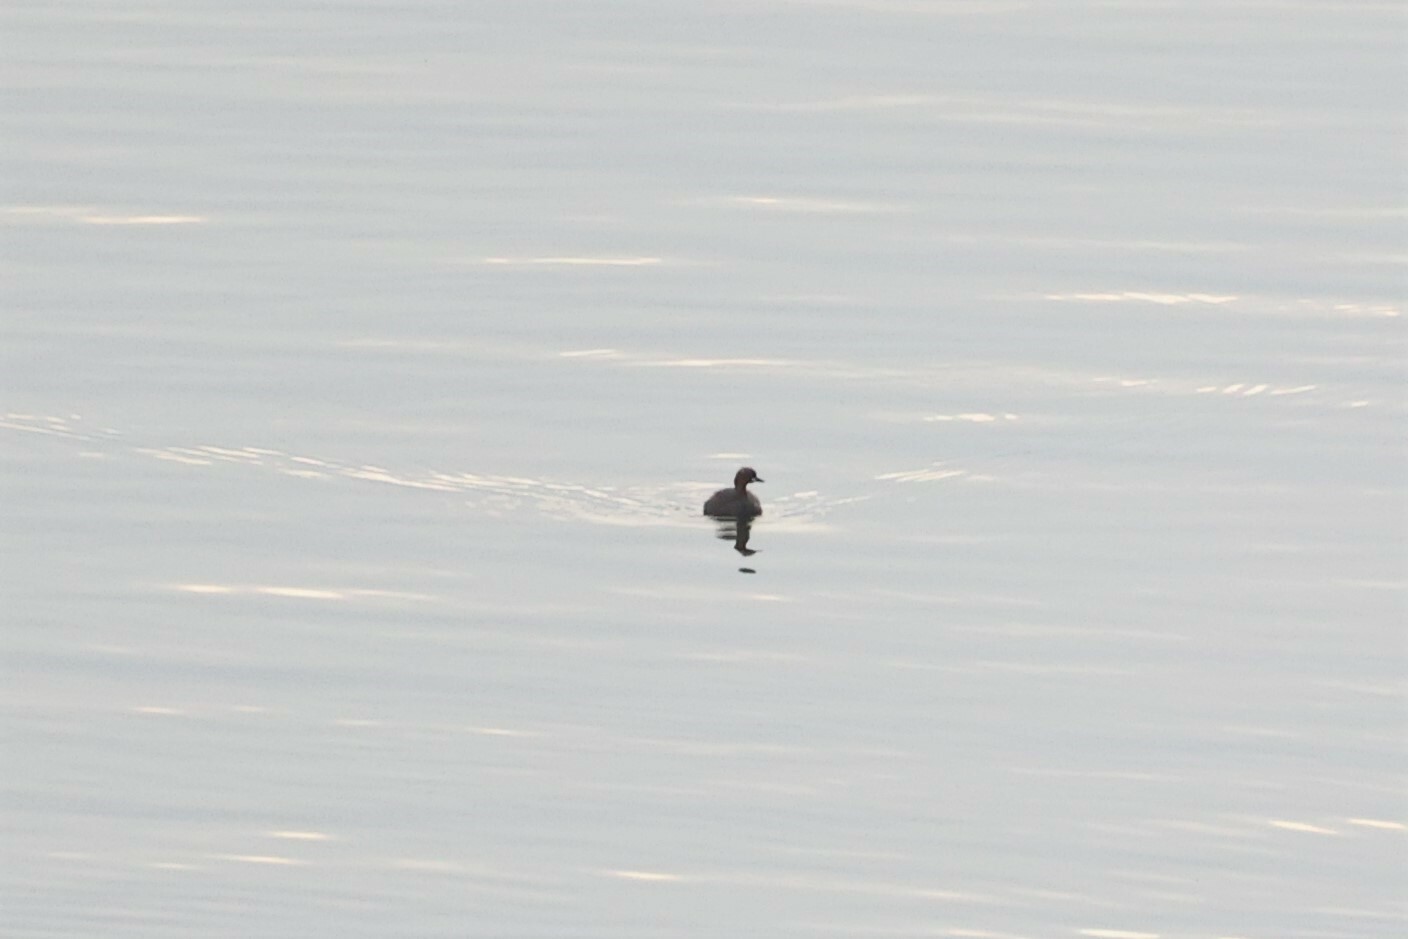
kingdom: Animalia
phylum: Chordata
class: Aves
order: Podicipediformes
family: Podicipedidae
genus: Tachybaptus
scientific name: Tachybaptus ruficollis
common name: Little grebe
